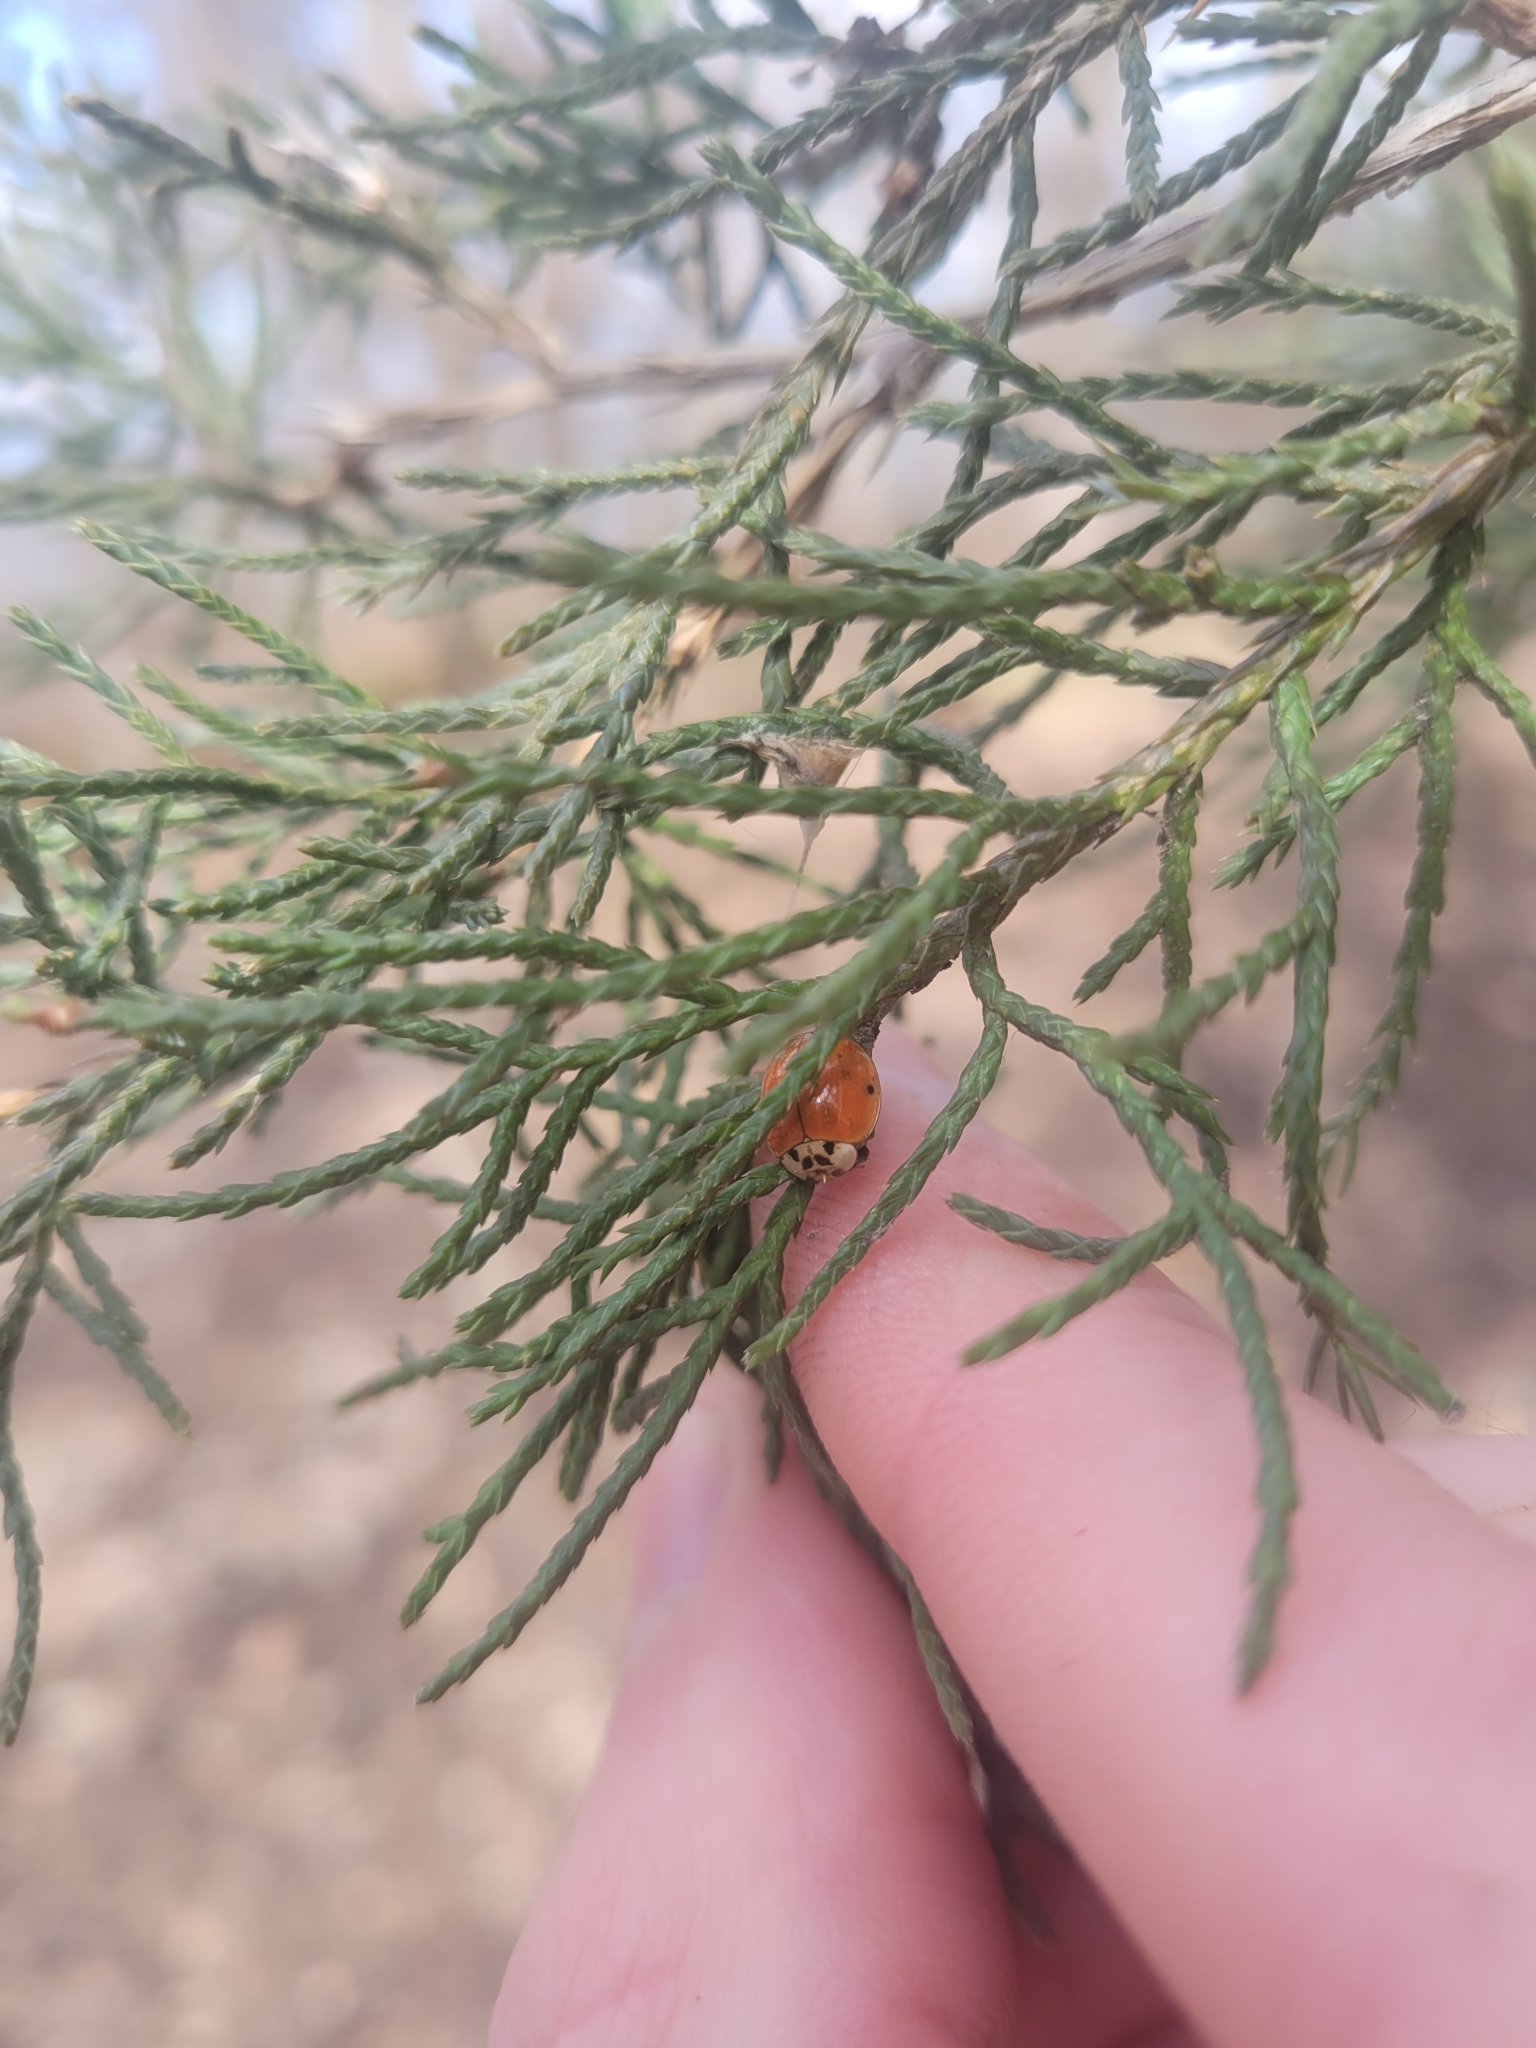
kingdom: Animalia
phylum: Arthropoda
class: Insecta
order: Coleoptera
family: Coccinellidae
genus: Harmonia
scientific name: Harmonia axyridis
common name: Harlequin ladybird
